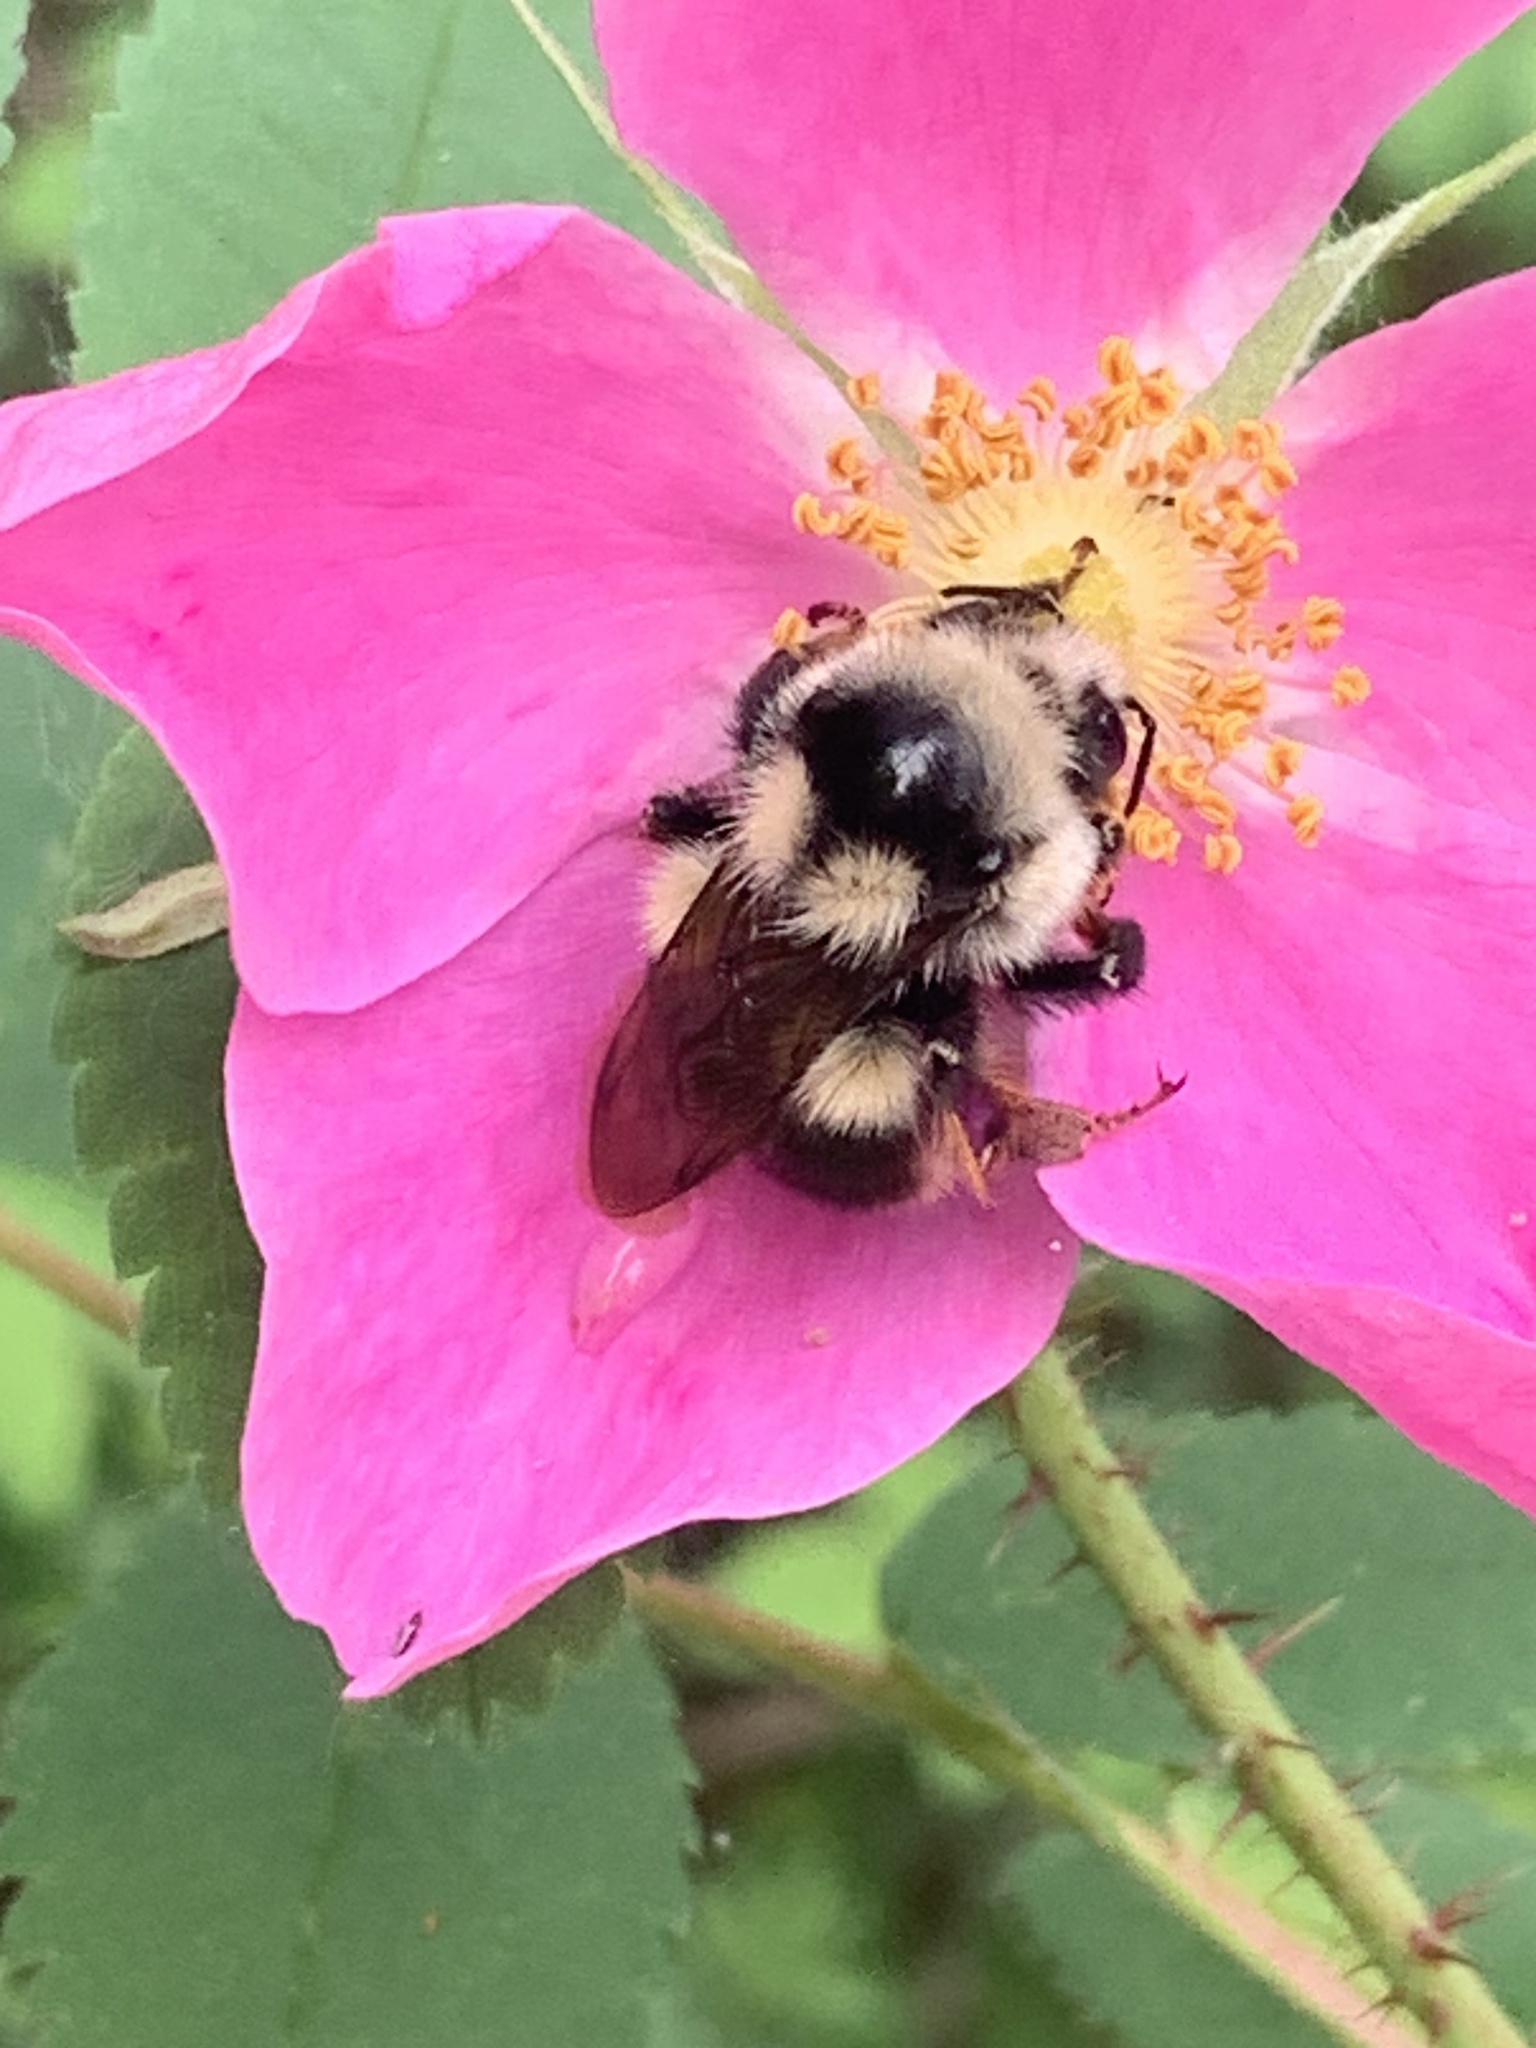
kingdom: Animalia
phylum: Arthropoda
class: Insecta
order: Hymenoptera
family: Apidae
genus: Bombus
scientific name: Bombus vancouverensis
